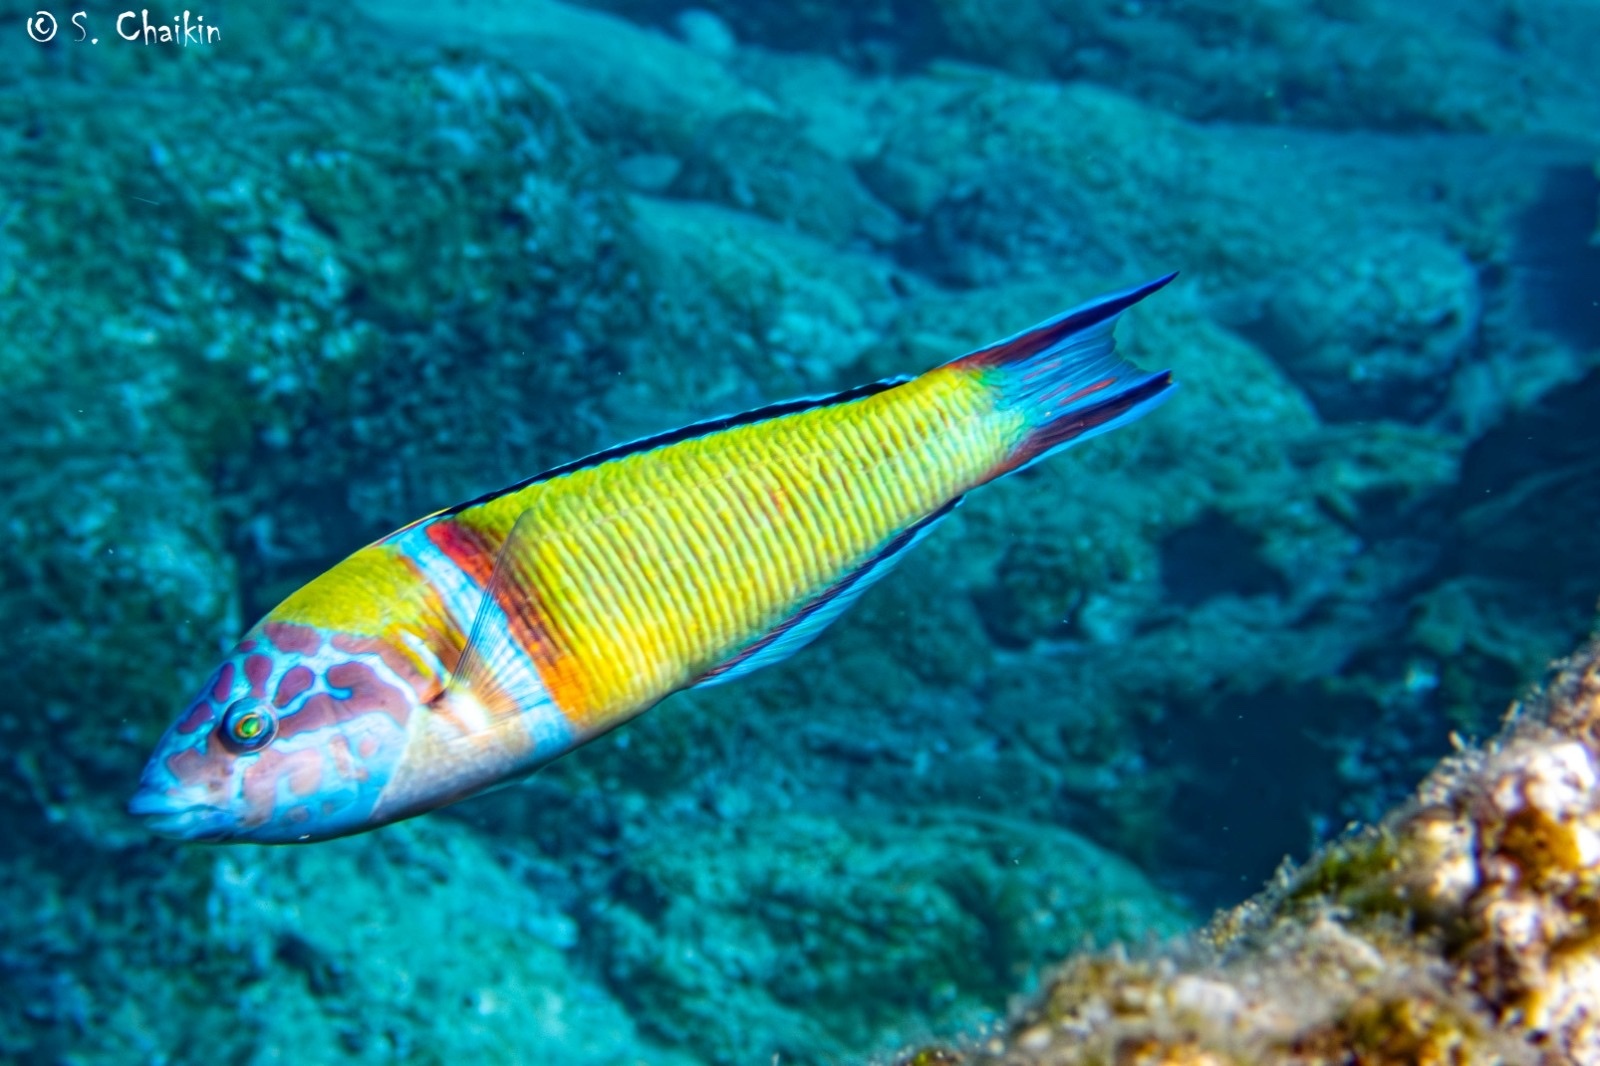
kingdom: Animalia
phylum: Chordata
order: Perciformes
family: Labridae
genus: Thalassoma
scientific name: Thalassoma pavo
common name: Ornate wrasse
